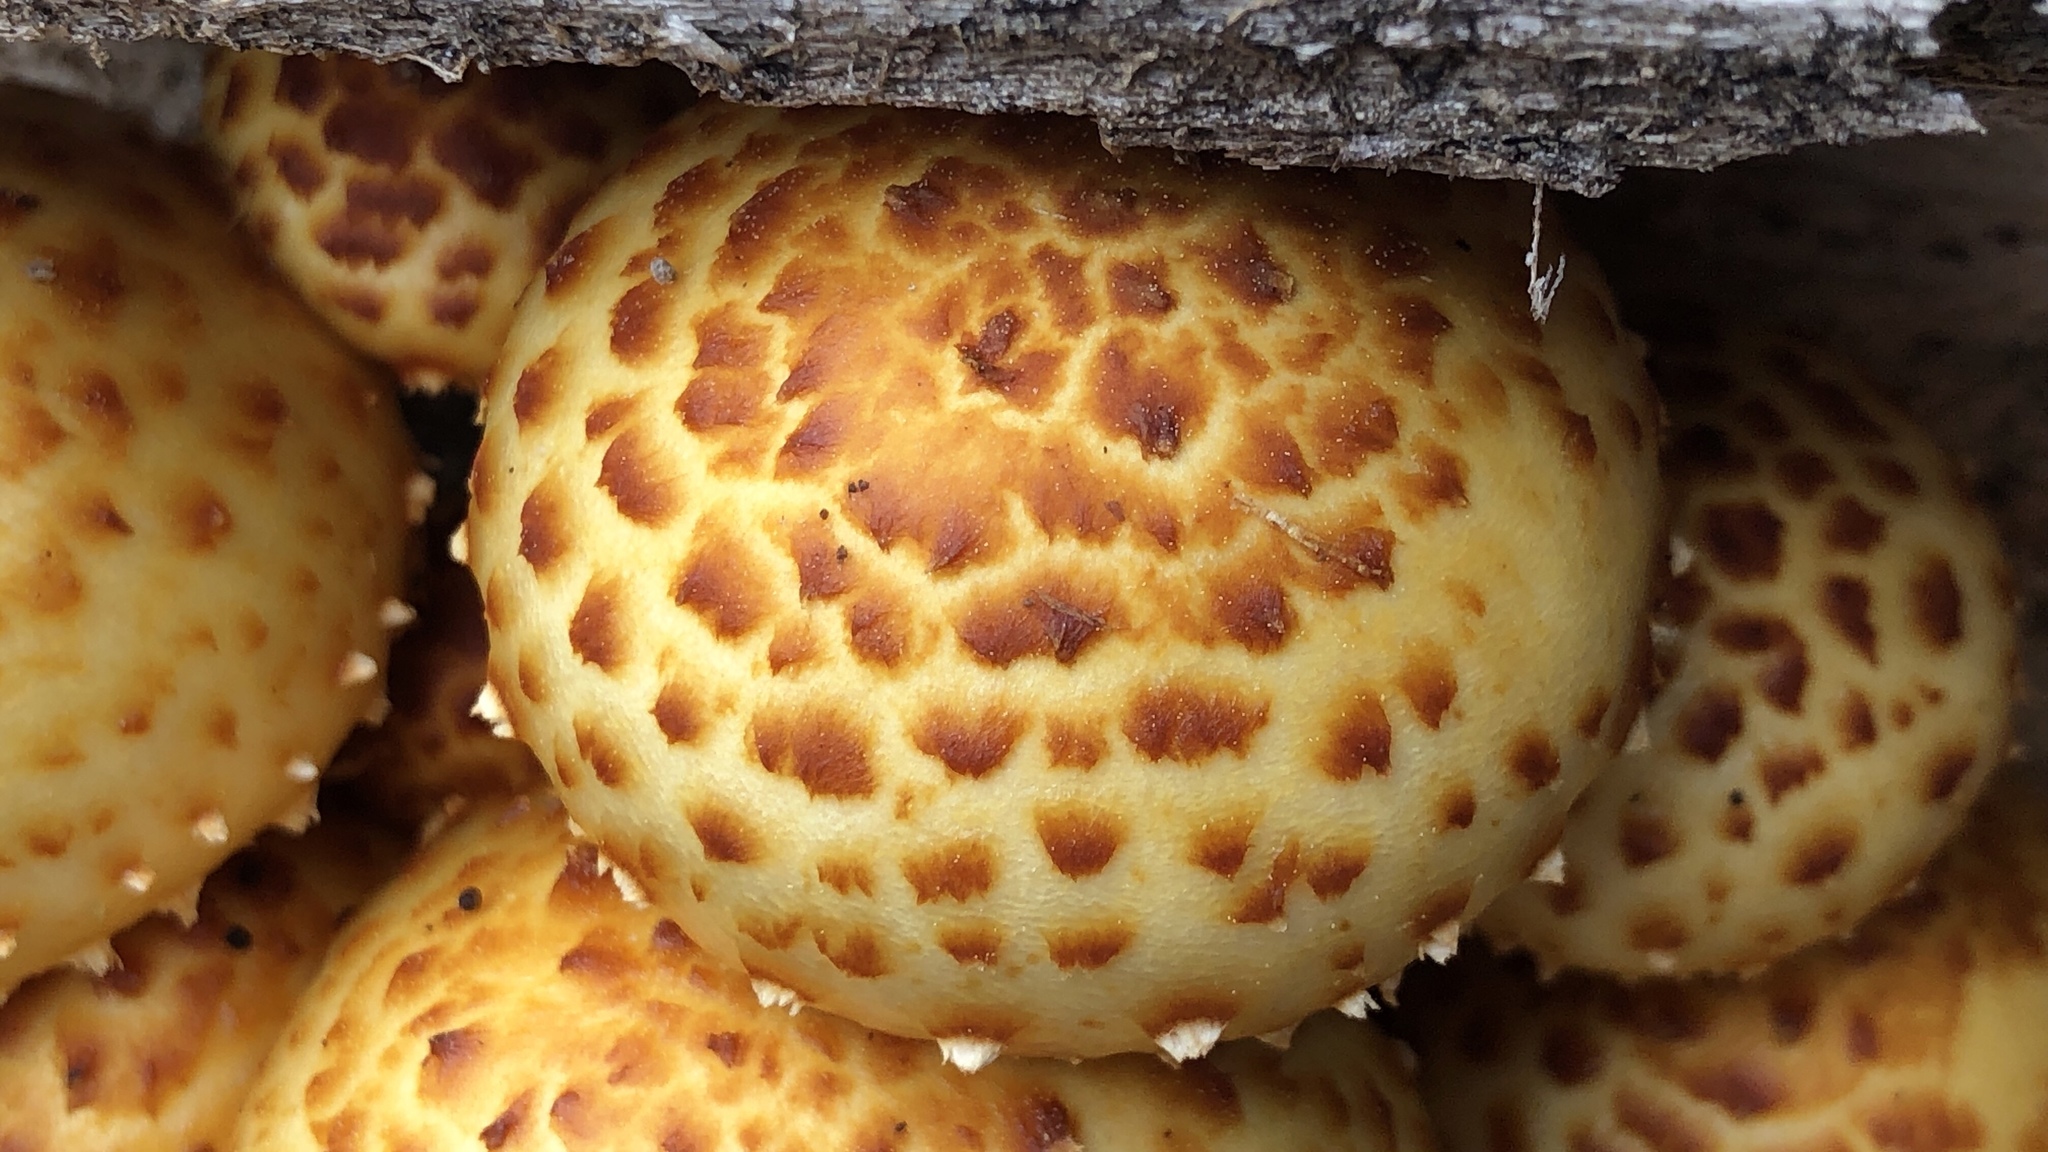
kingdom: Fungi
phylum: Basidiomycota
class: Agaricomycetes
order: Agaricales
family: Strophariaceae
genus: Pholiota
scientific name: Pholiota aurivella
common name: Golden scalycap
